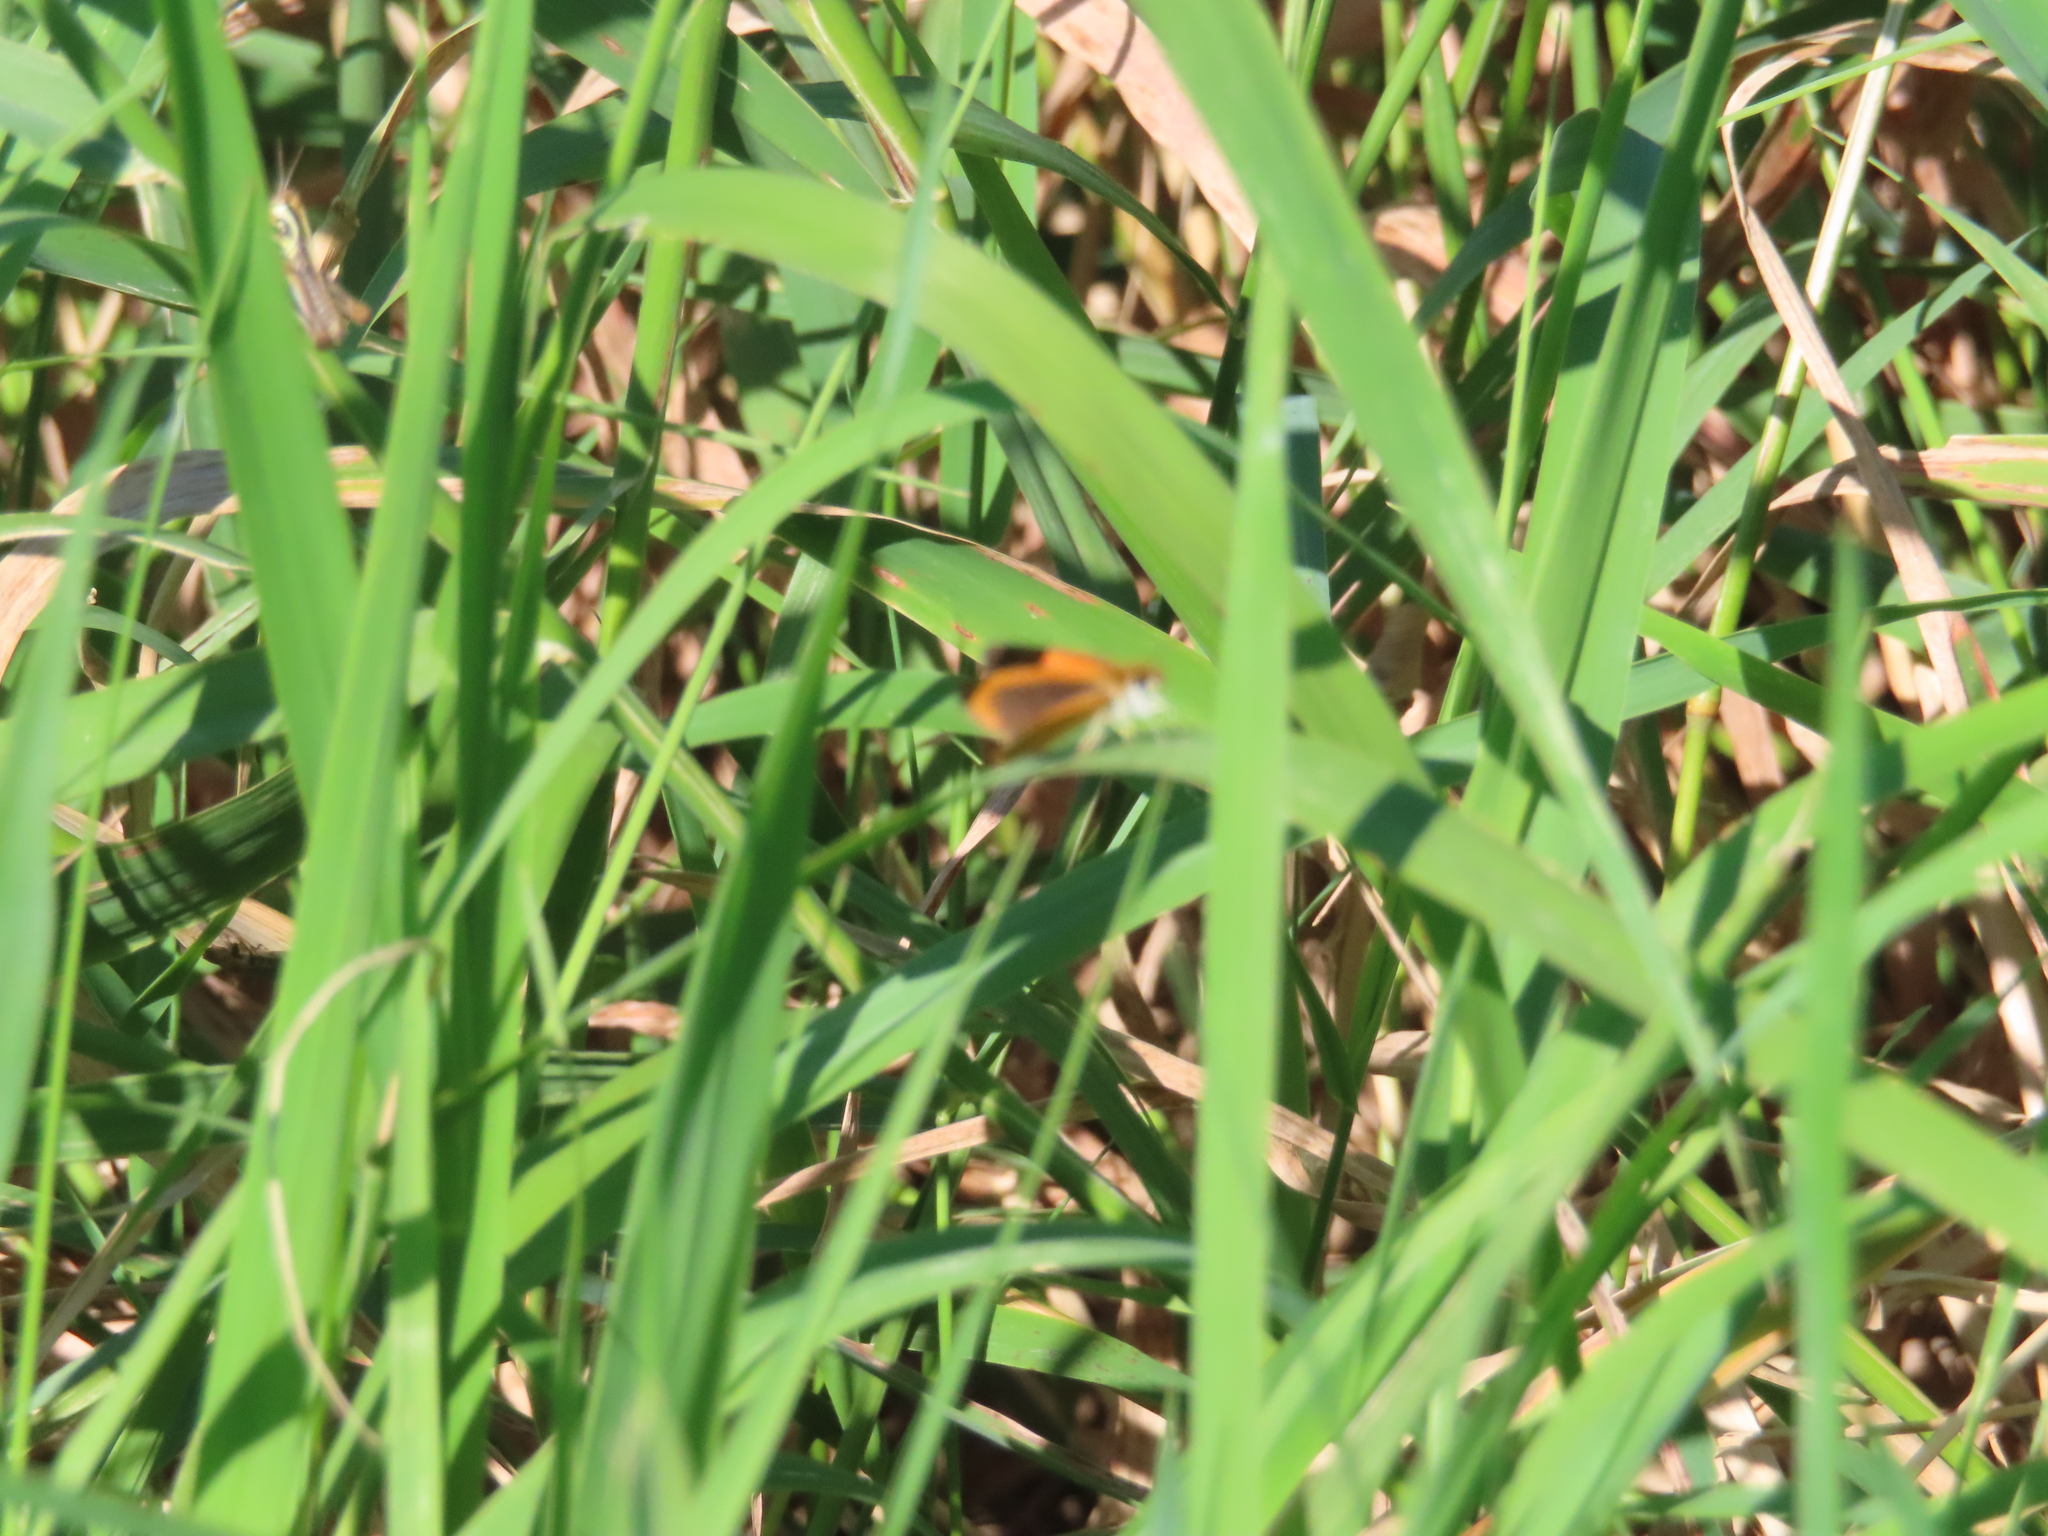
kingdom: Animalia
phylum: Arthropoda
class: Insecta
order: Lepidoptera
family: Hesperiidae
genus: Ancyloxypha
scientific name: Ancyloxypha numitor
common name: Least skipper
